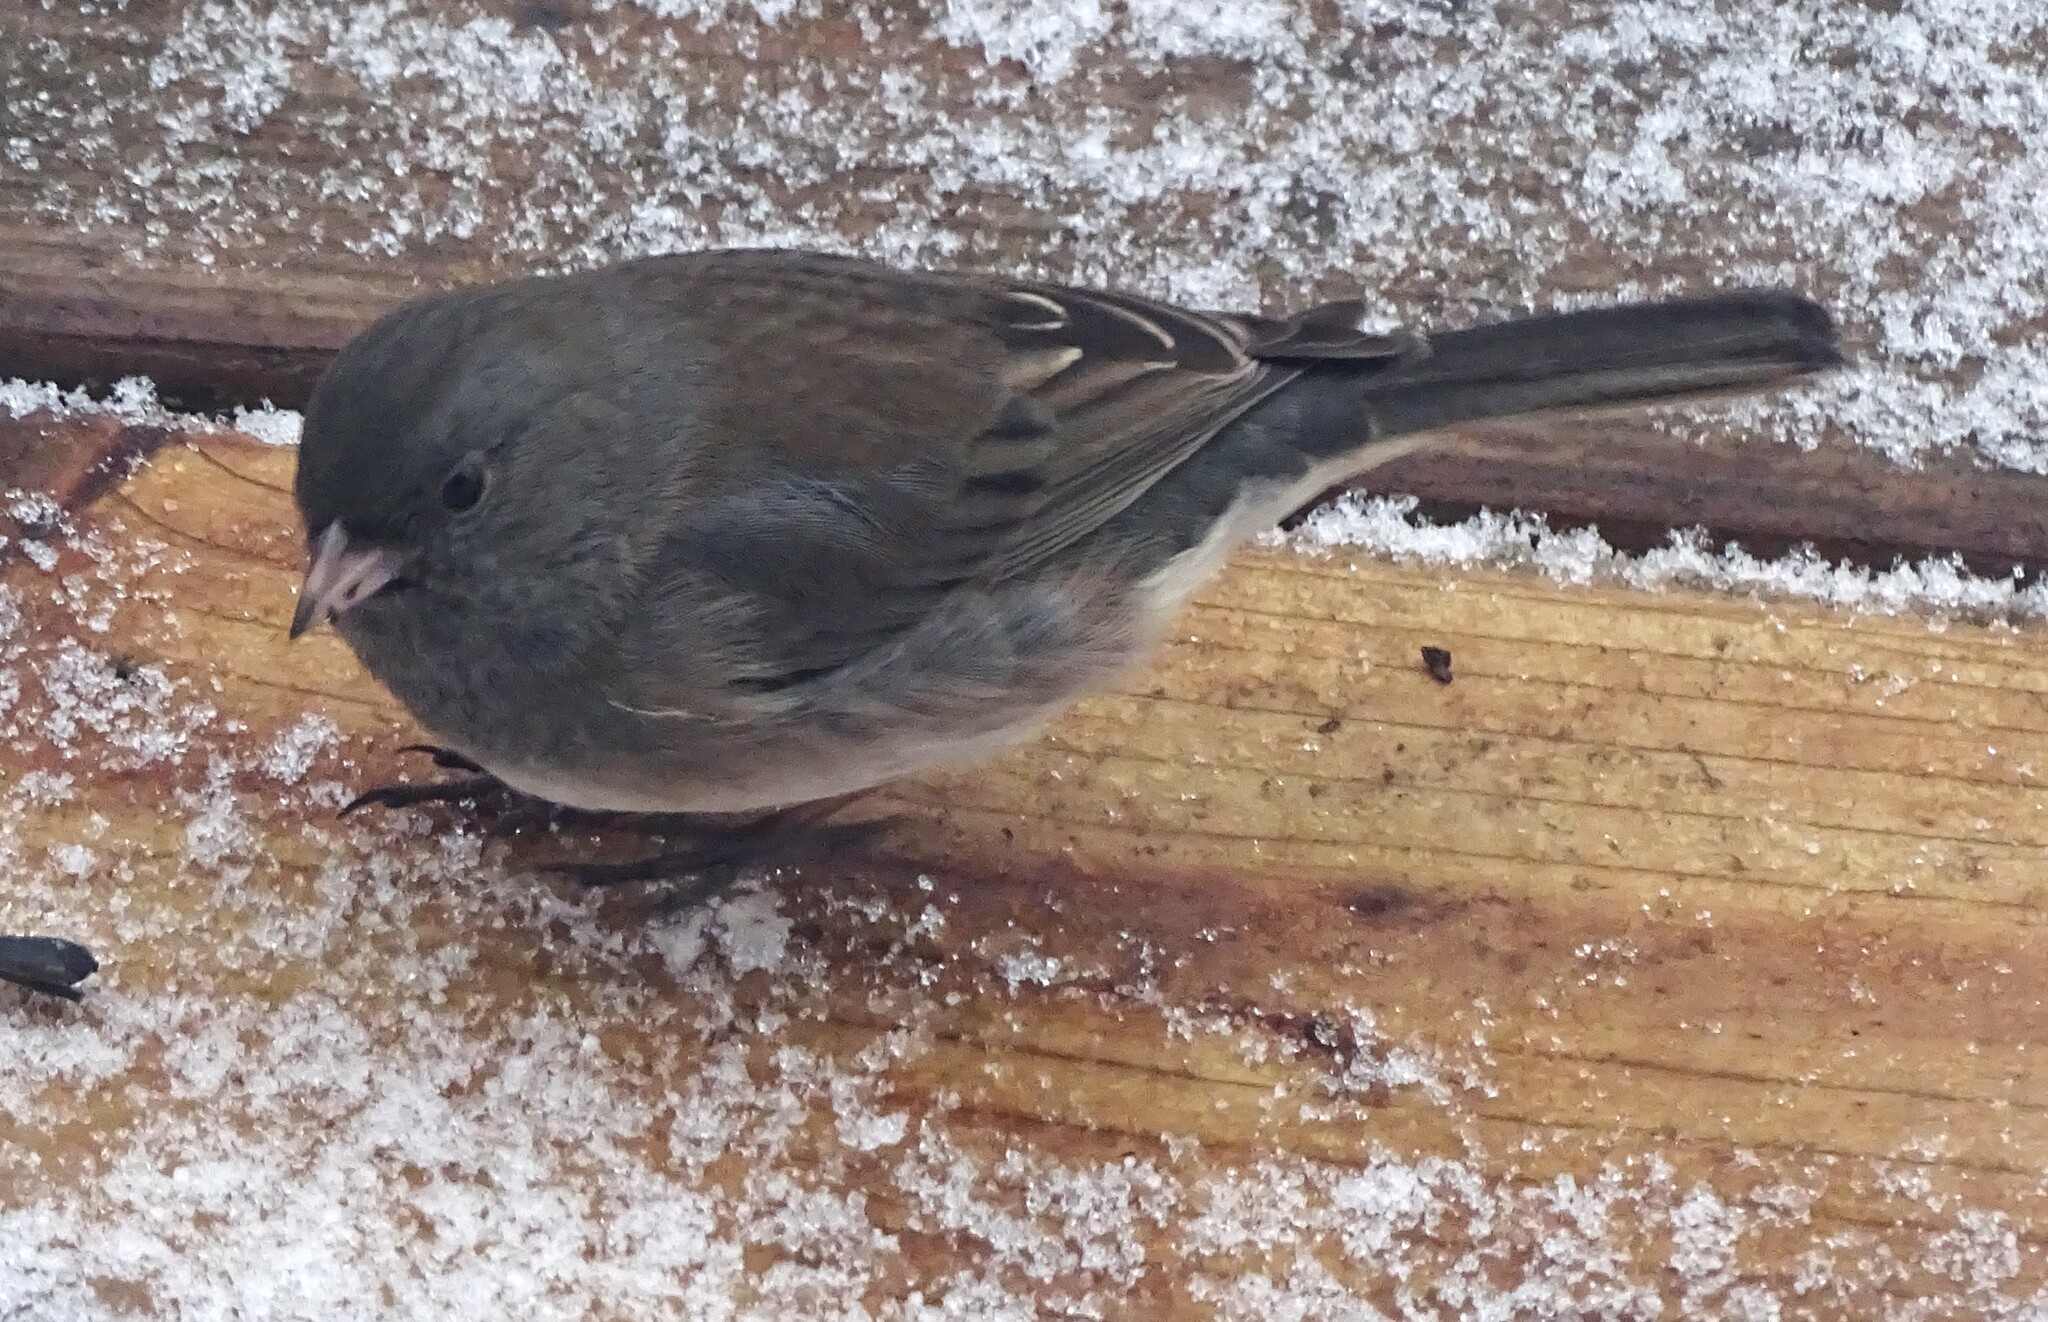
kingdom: Animalia
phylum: Chordata
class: Aves
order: Passeriformes
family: Passerellidae
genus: Junco
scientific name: Junco hyemalis
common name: Dark-eyed junco
